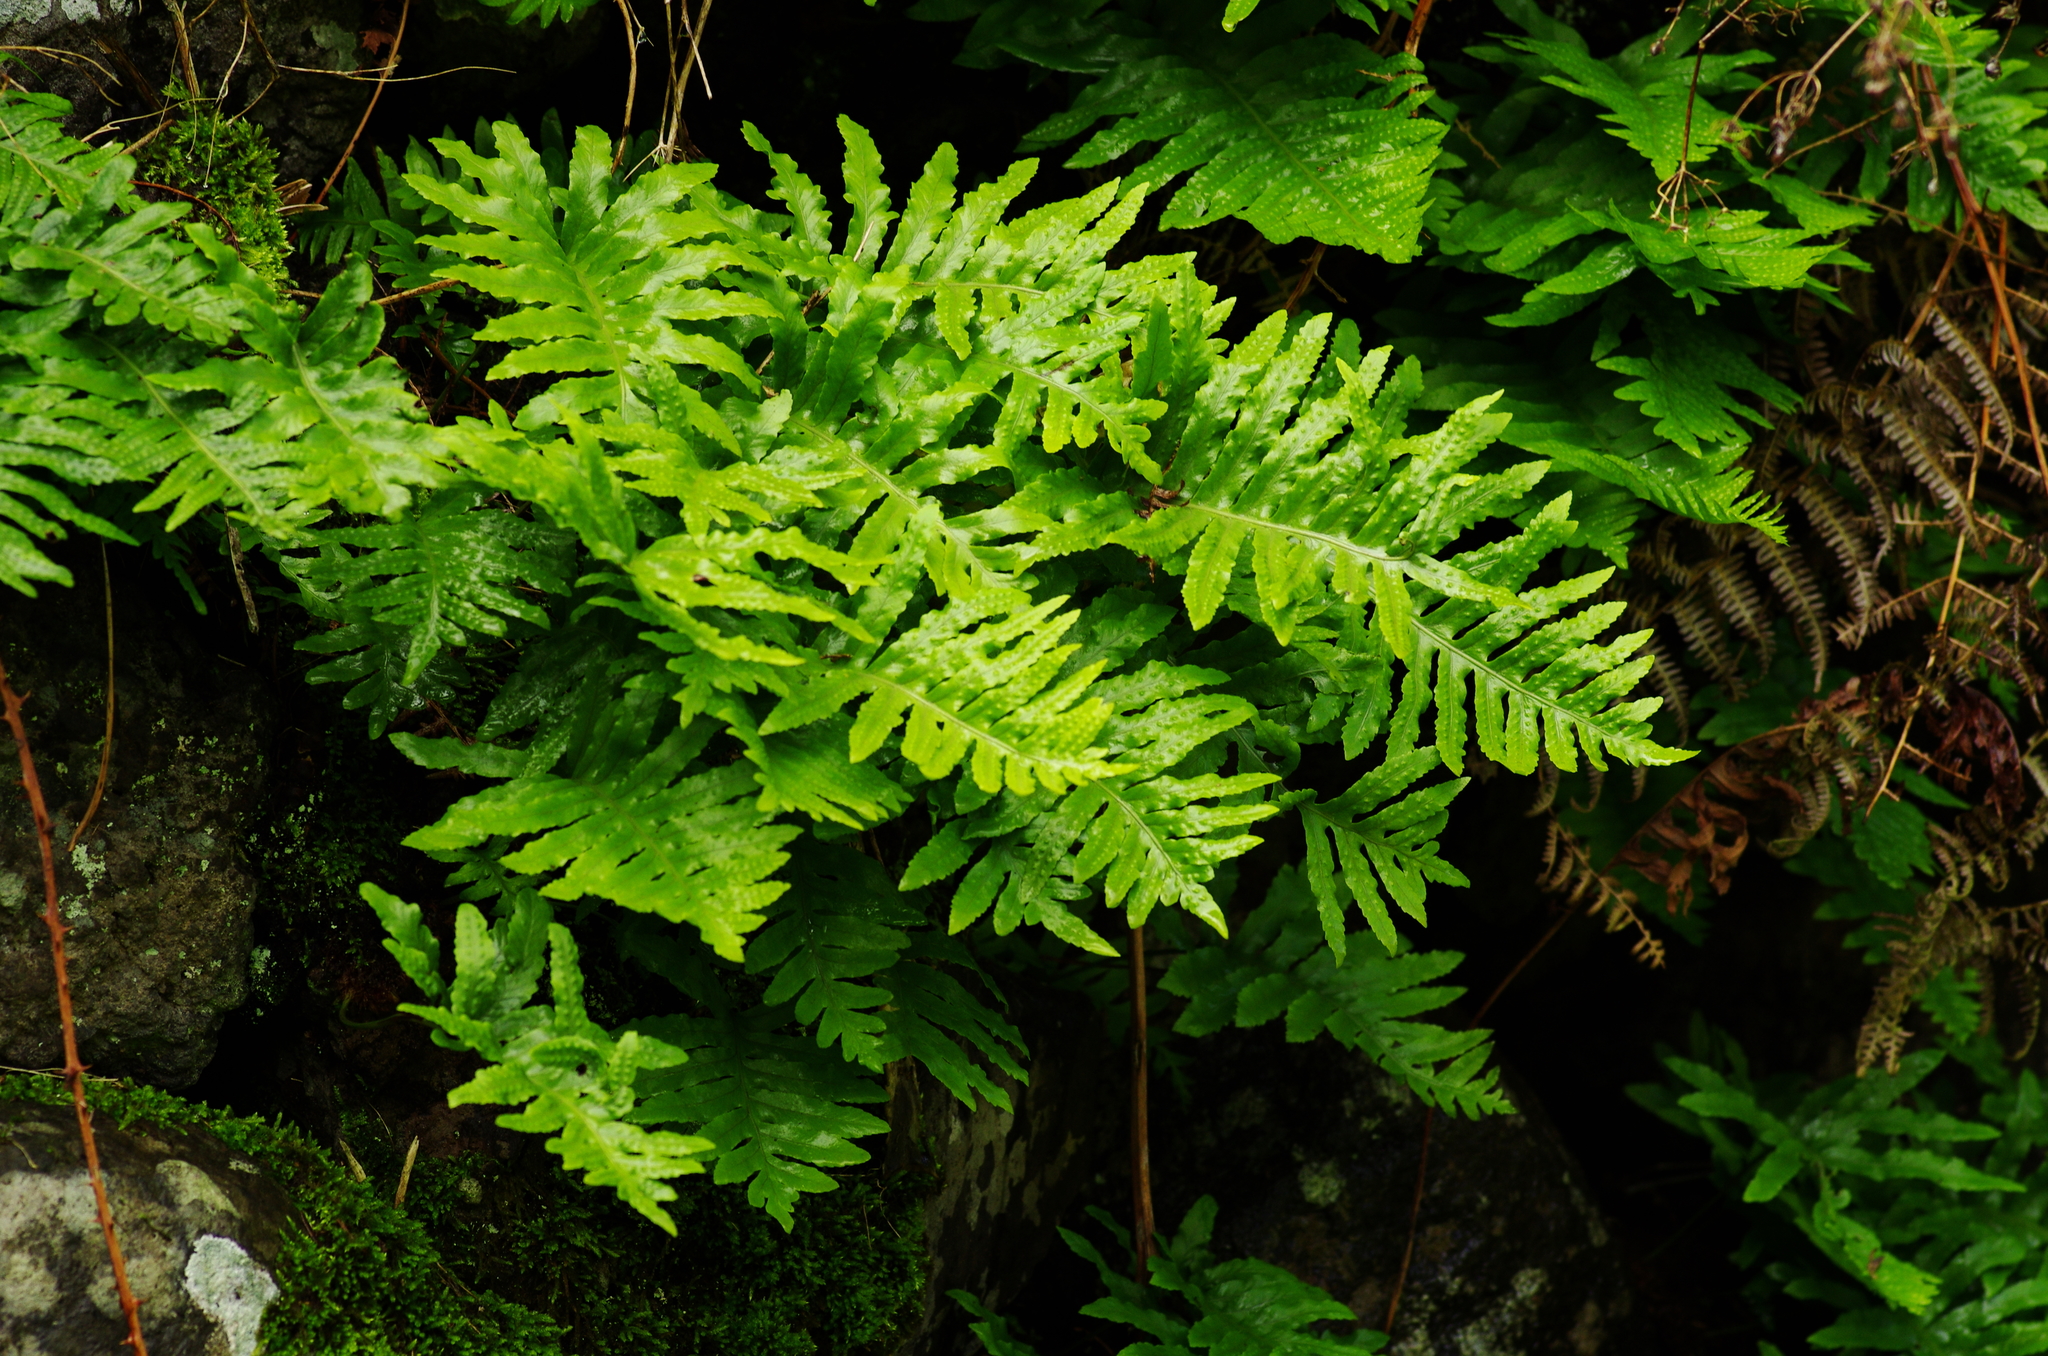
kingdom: Plantae
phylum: Tracheophyta
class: Polypodiopsida
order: Polypodiales
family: Polypodiaceae
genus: Polypodium
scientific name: Polypodium macaronesicum
